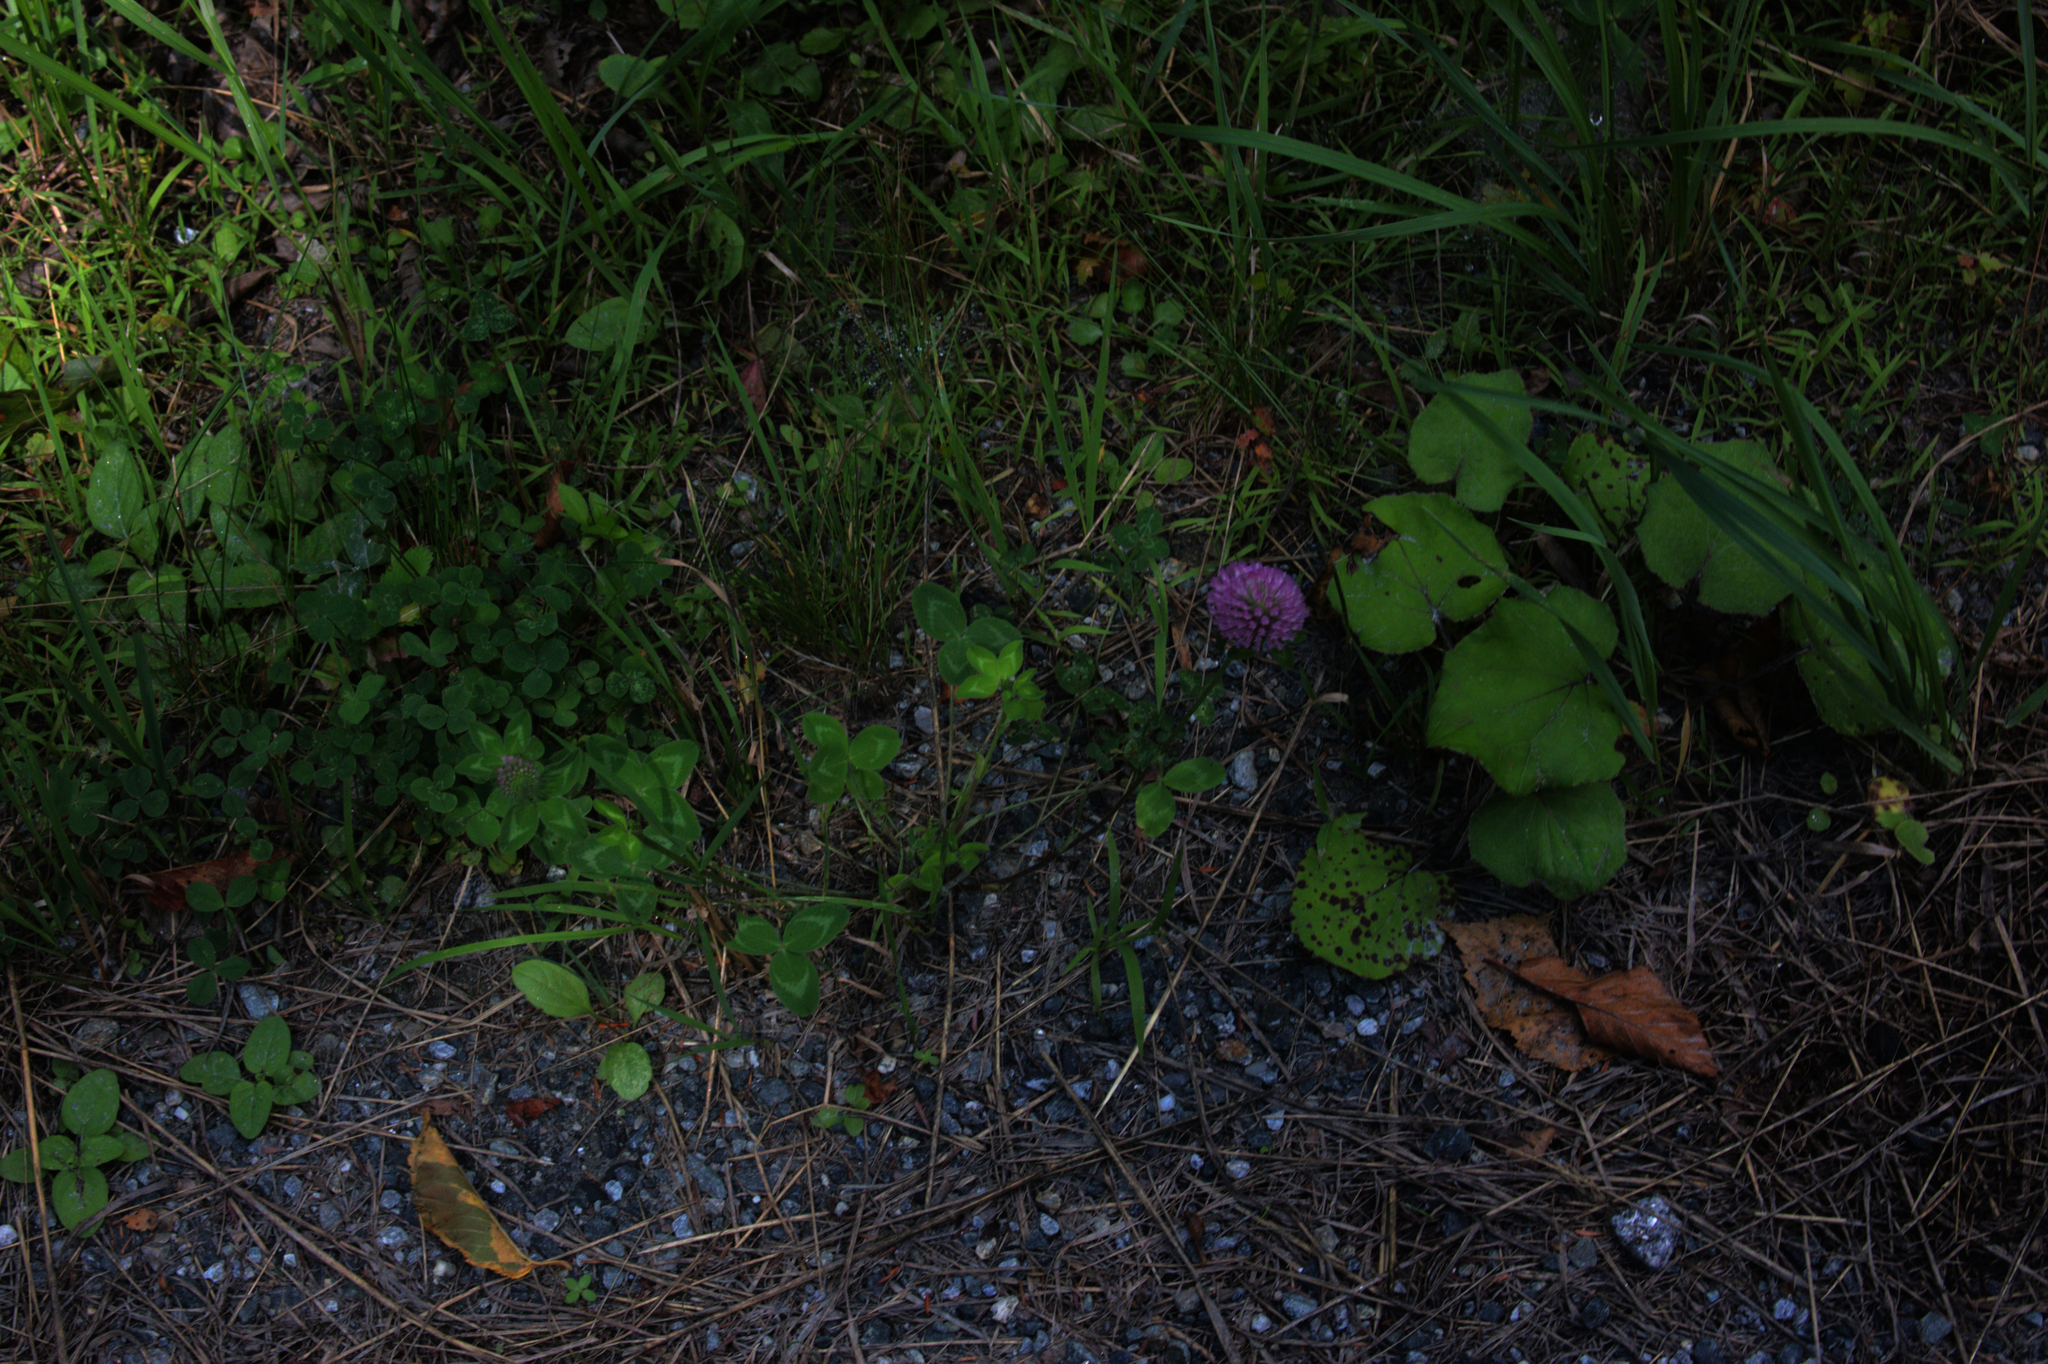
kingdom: Plantae
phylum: Tracheophyta
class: Magnoliopsida
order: Fabales
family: Fabaceae
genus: Trifolium
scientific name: Trifolium pratense
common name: Red clover
